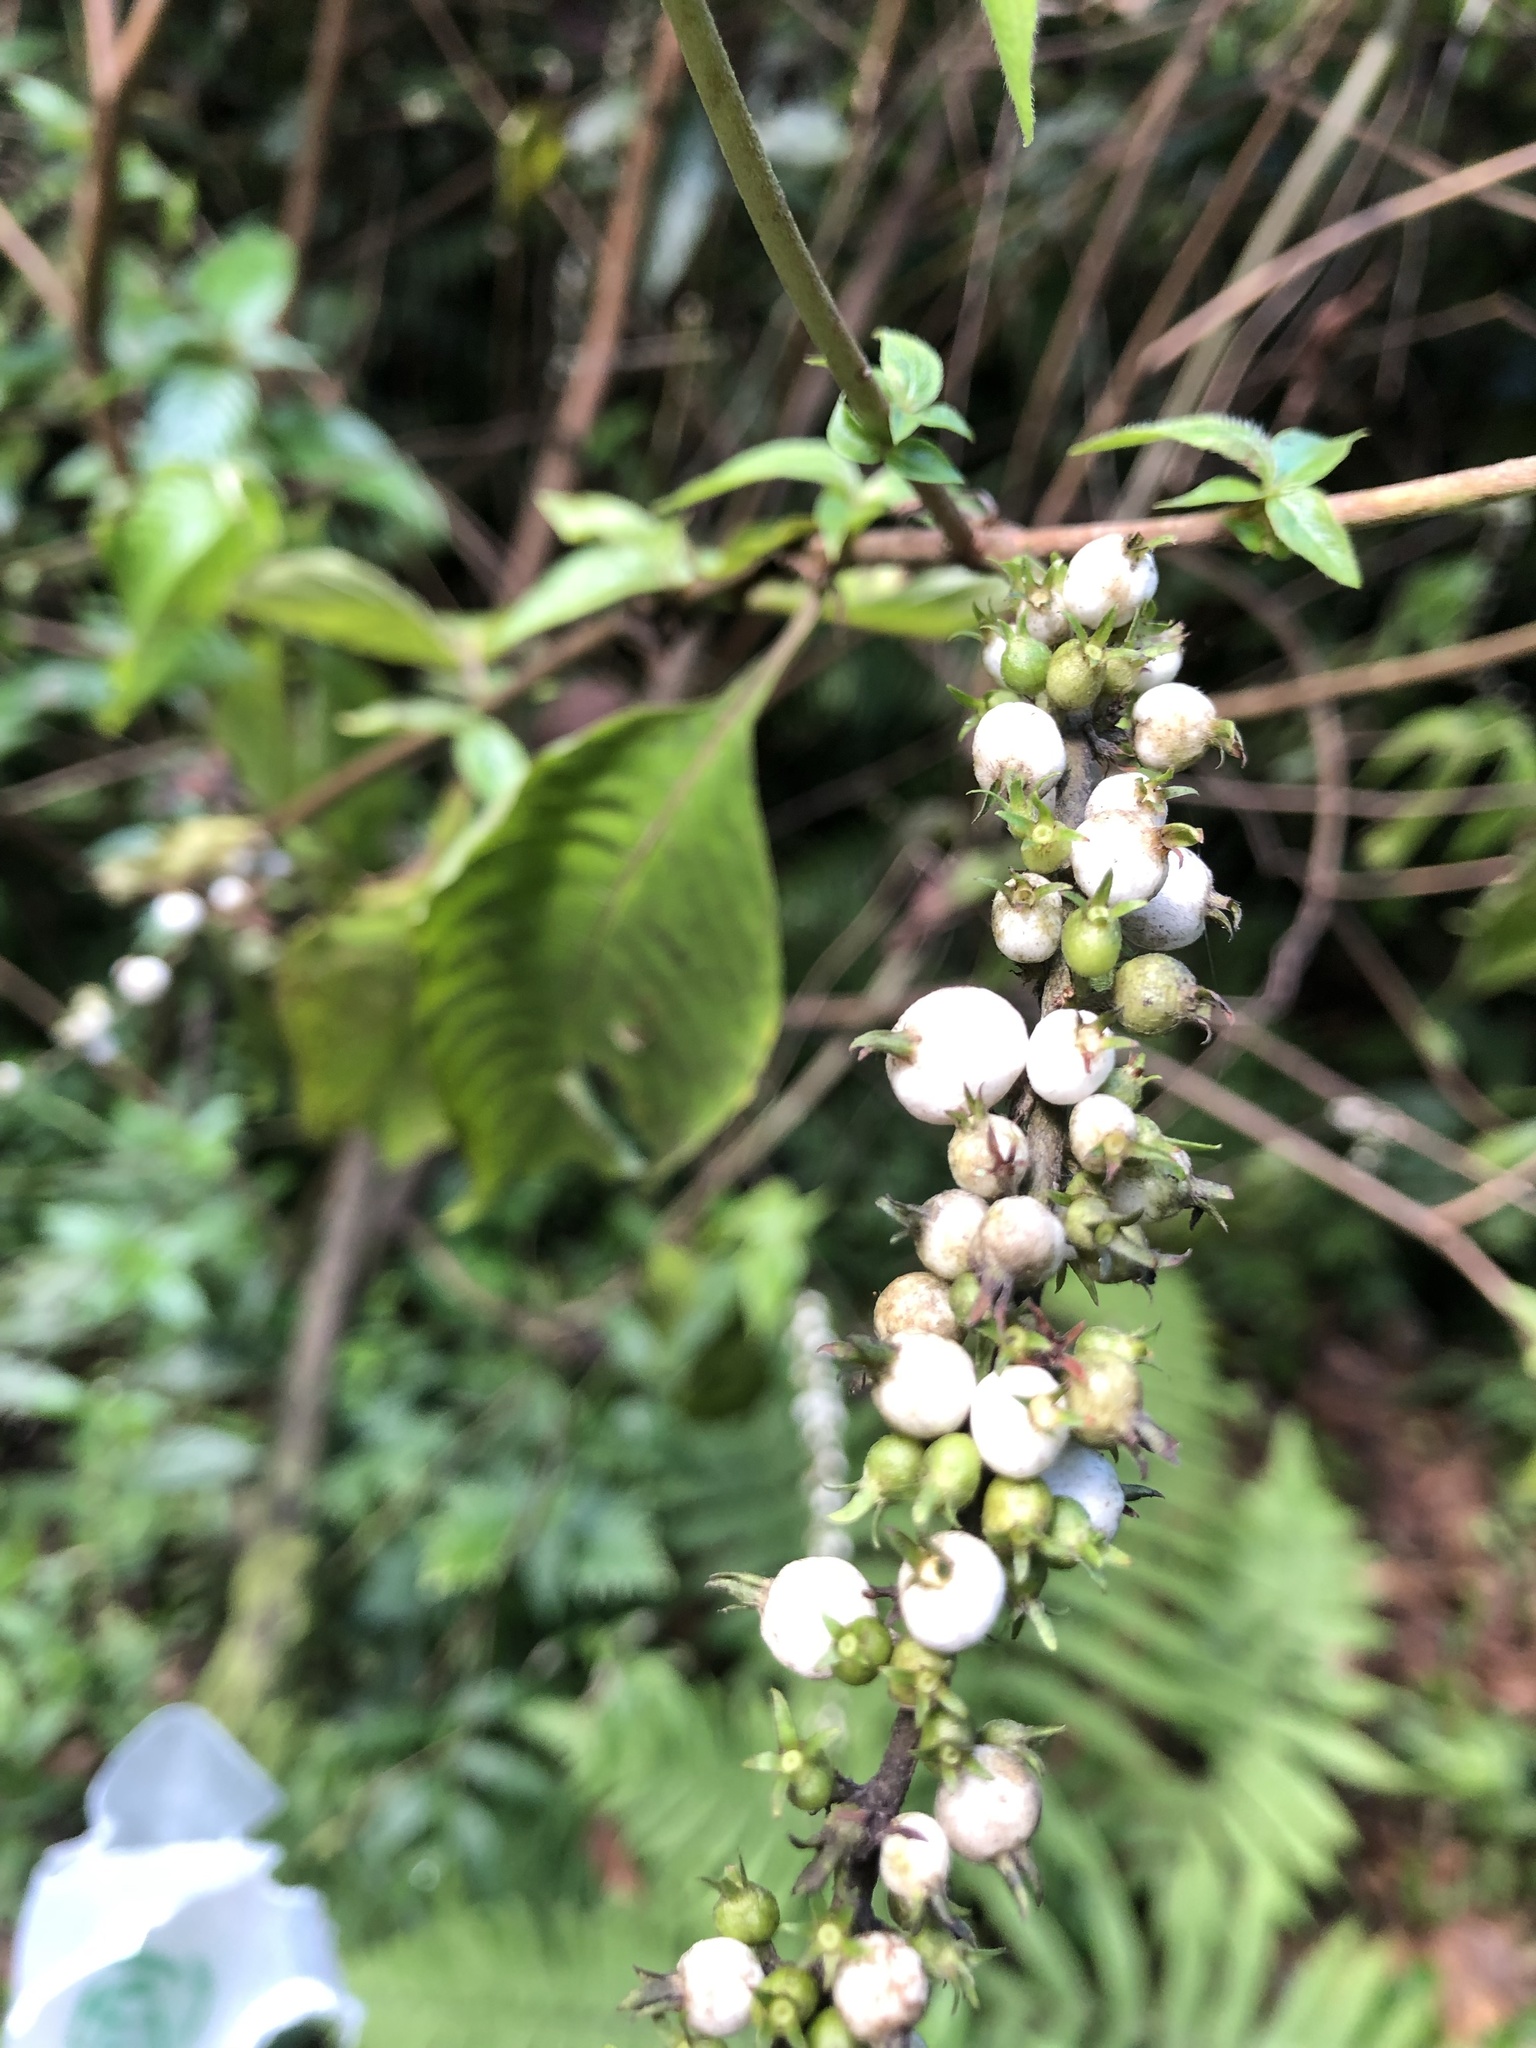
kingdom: Plantae
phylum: Tracheophyta
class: Magnoliopsida
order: Gentianales
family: Rubiaceae
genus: Gonzalagunia
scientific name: Gonzalagunia hirsuta
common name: Mata de mariposa
